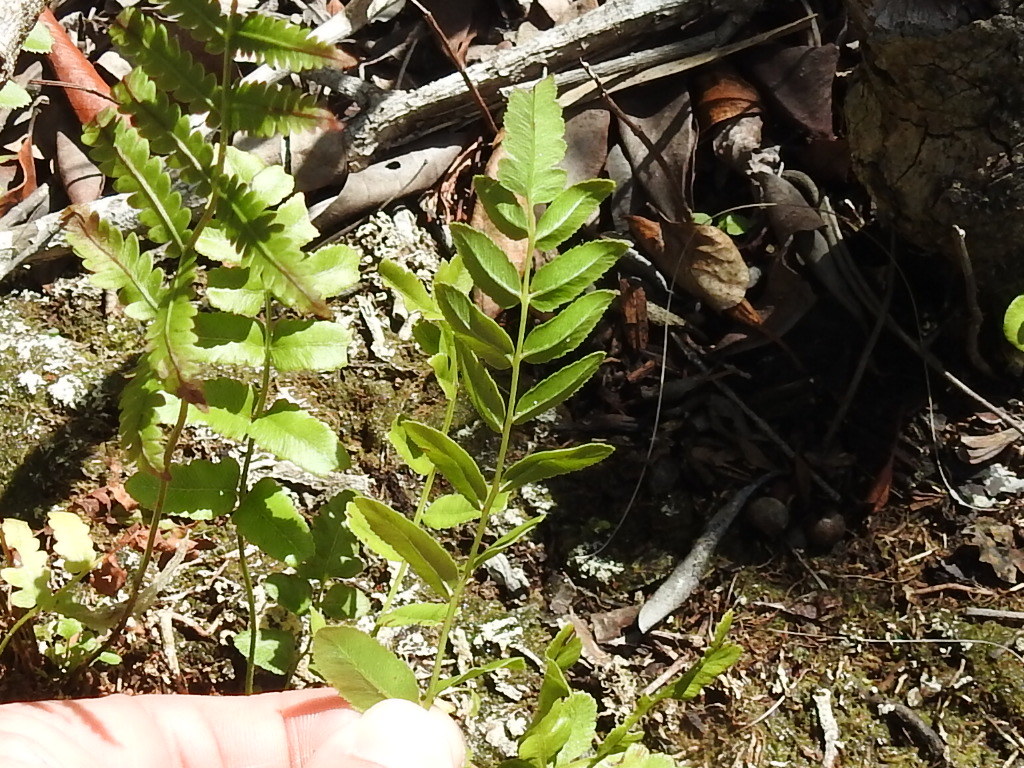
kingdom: Plantae
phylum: Tracheophyta
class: Polypodiopsida
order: Polypodiales
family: Blechnaceae
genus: Telmatoblechnum
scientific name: Telmatoblechnum serrulatum
